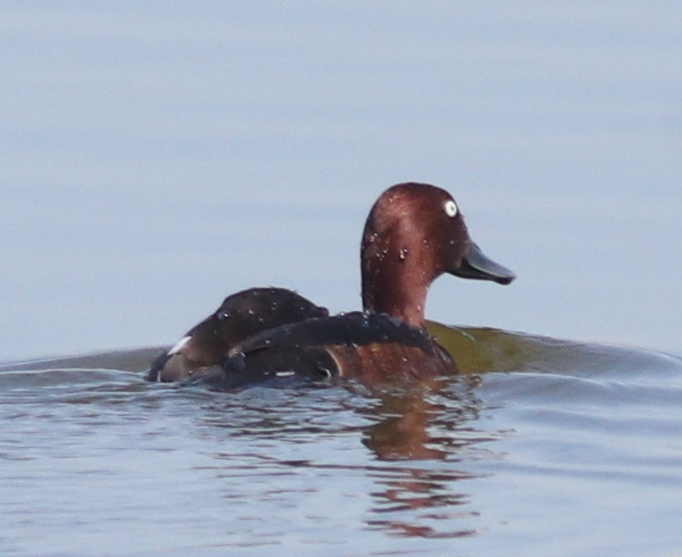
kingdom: Animalia
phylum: Chordata
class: Aves
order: Anseriformes
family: Anatidae
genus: Aythya
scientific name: Aythya nyroca
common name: Ferruginous duck
